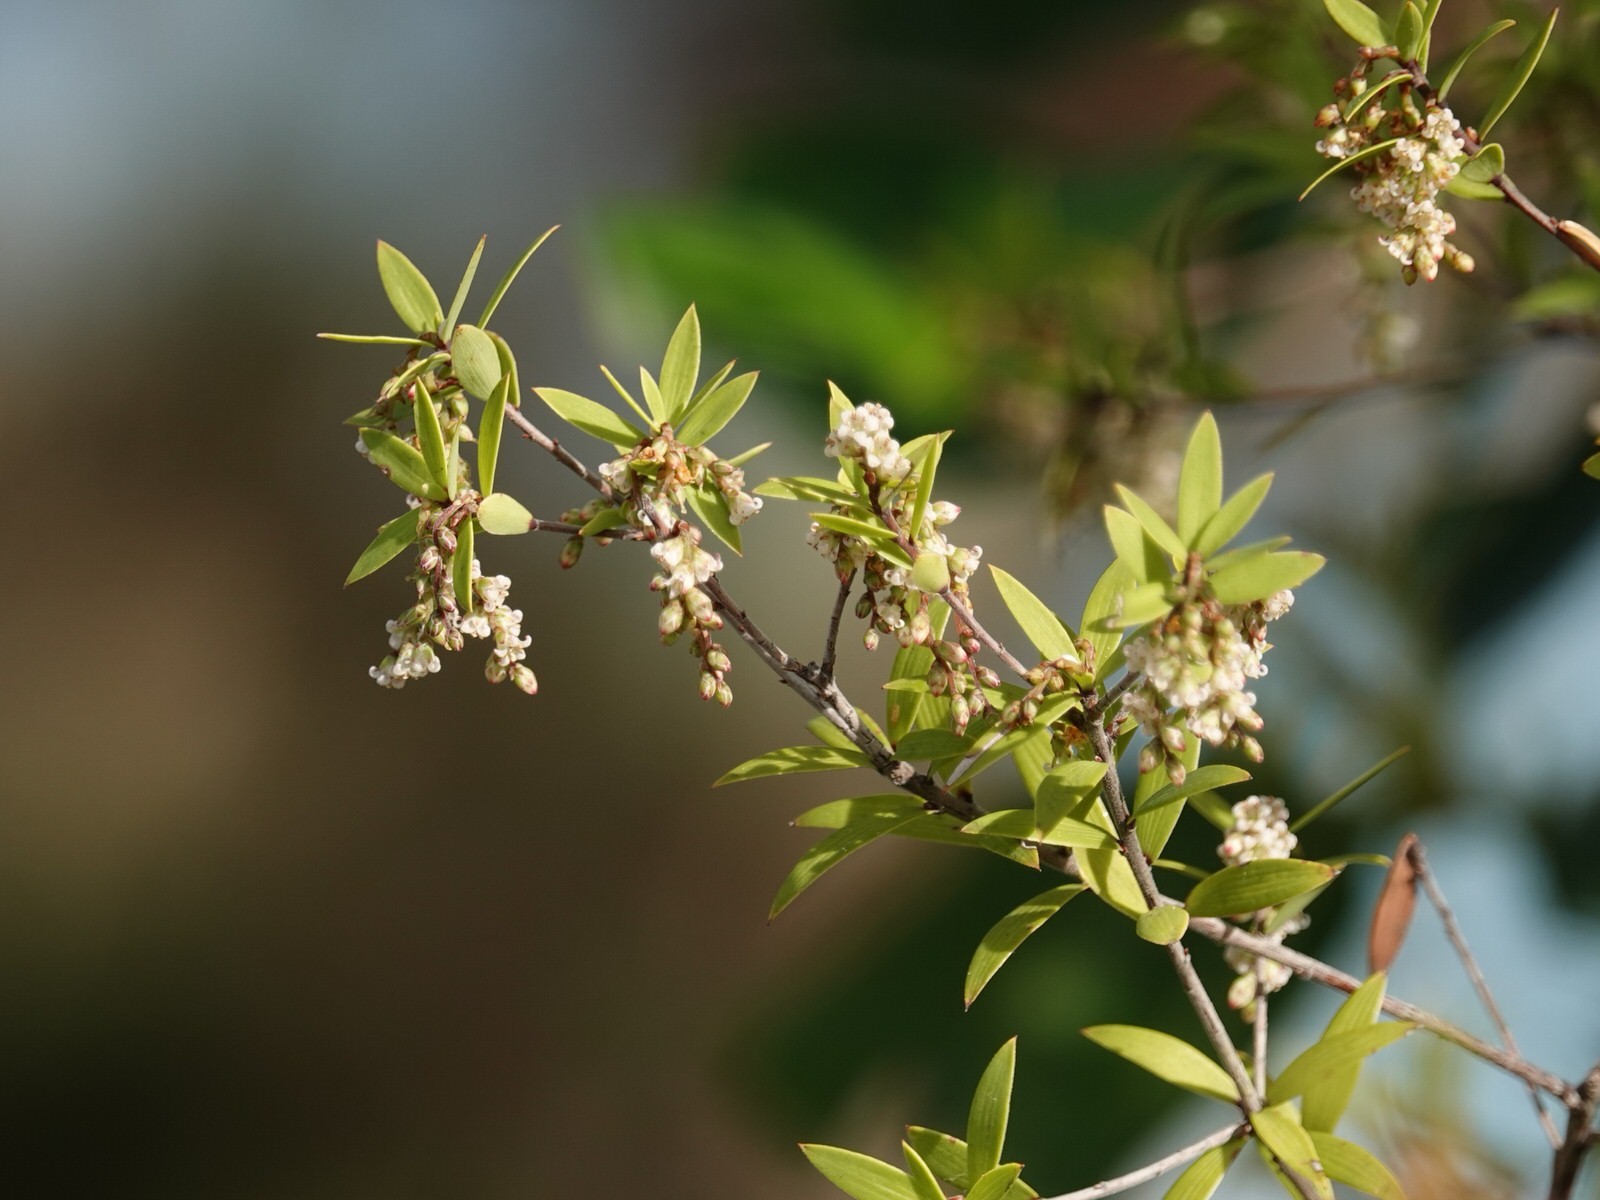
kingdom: Plantae
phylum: Tracheophyta
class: Magnoliopsida
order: Ericales
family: Ericaceae
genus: Leucopogon
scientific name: Leucopogon fasciculatus
